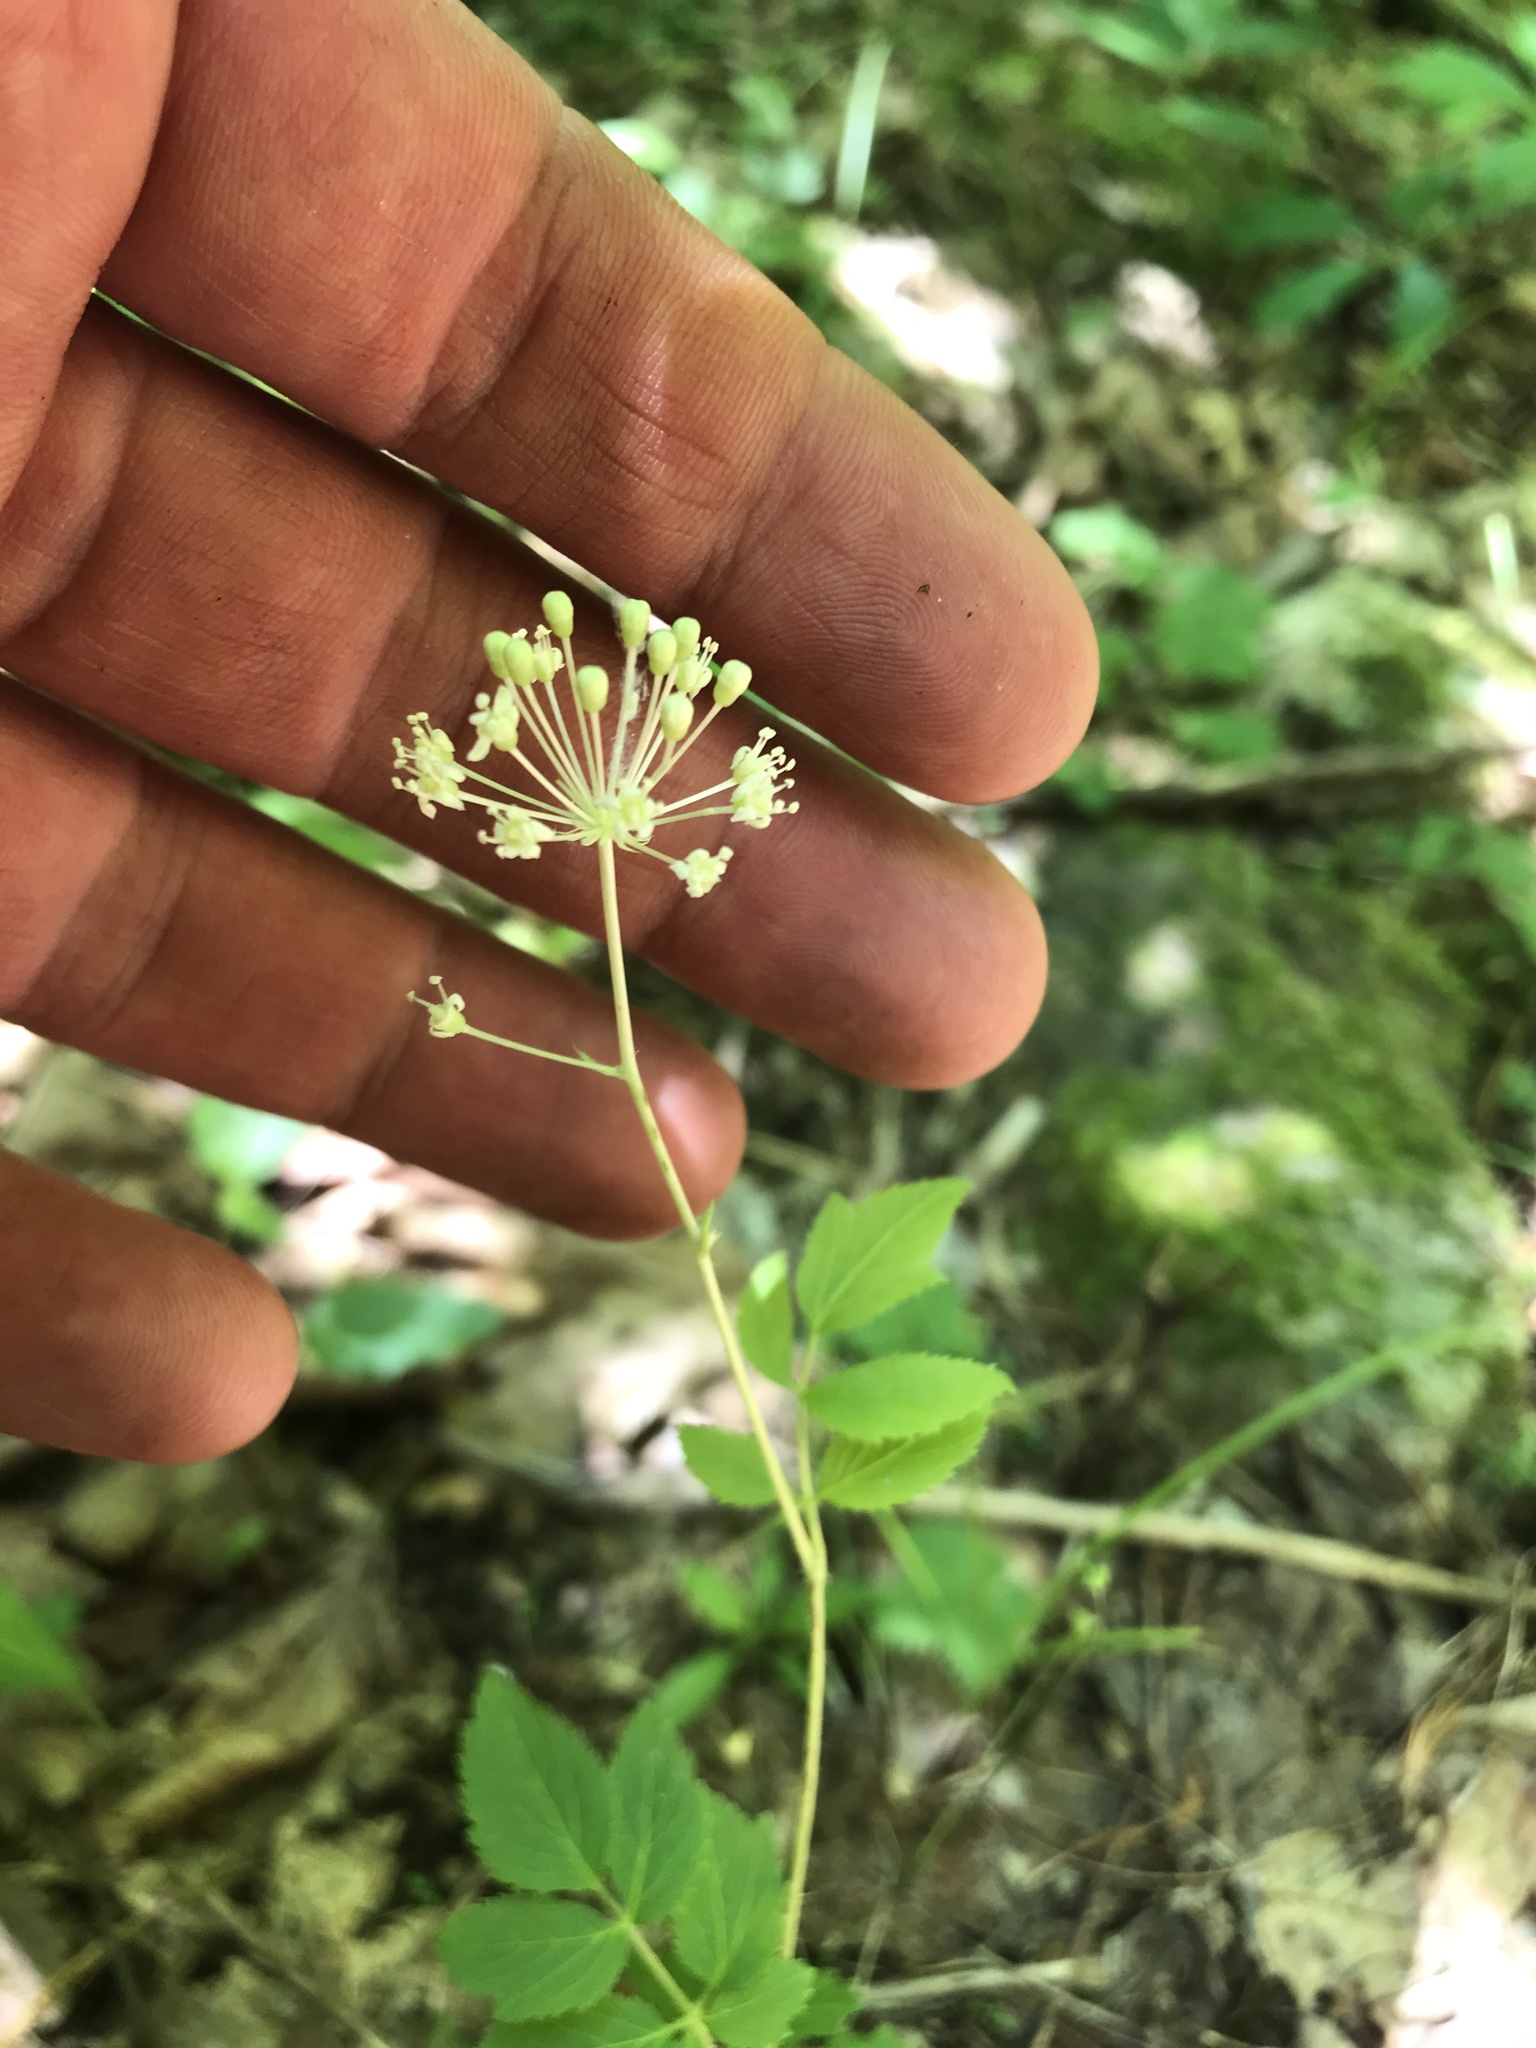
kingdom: Plantae
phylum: Tracheophyta
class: Magnoliopsida
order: Apiales
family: Araliaceae
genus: Aralia
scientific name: Aralia hispida
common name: Bristly sarsaparilla
